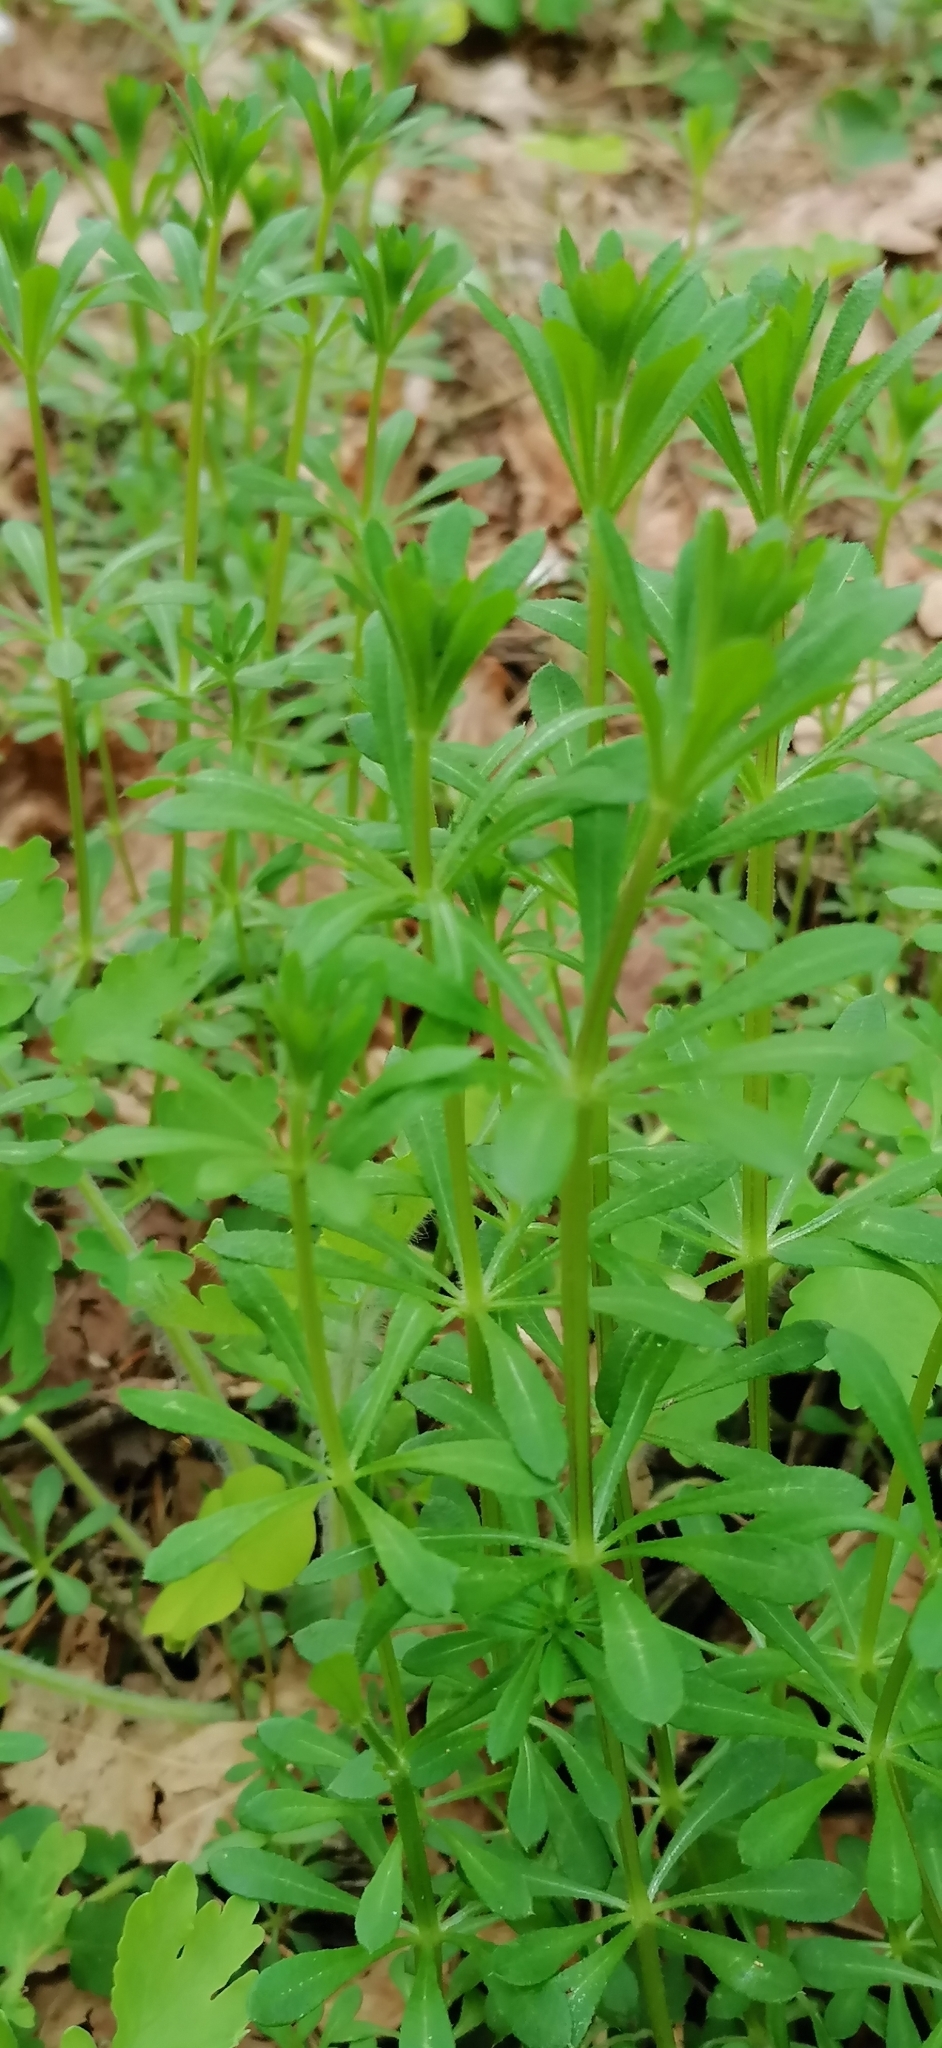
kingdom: Plantae
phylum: Tracheophyta
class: Magnoliopsida
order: Gentianales
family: Rubiaceae
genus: Galium
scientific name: Galium aparine
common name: Cleavers
